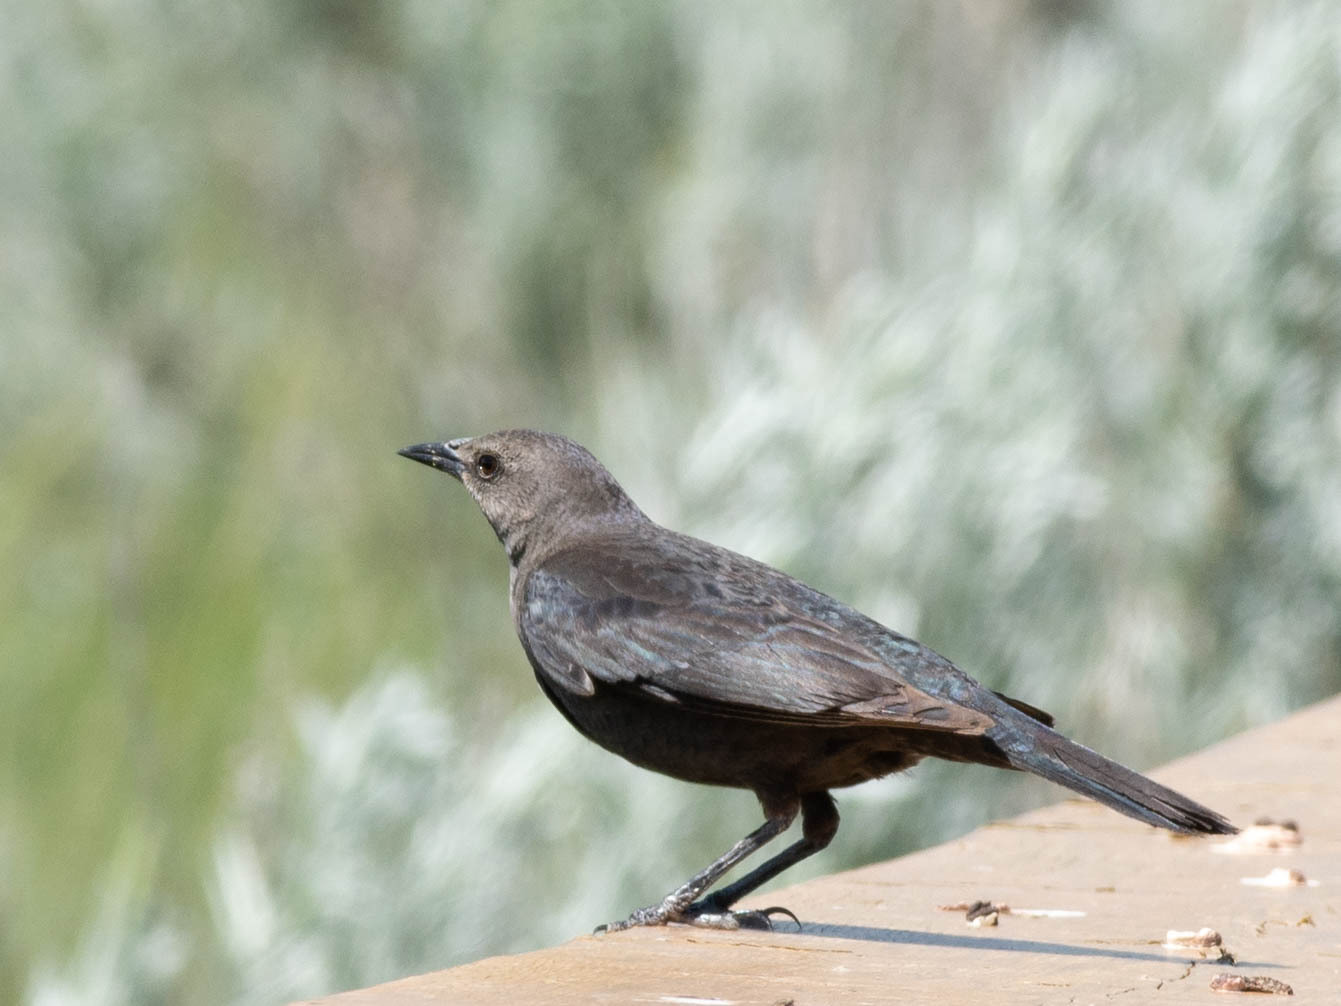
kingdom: Animalia
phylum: Chordata
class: Aves
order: Passeriformes
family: Icteridae
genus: Euphagus
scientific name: Euphagus cyanocephalus
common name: Brewer's blackbird
